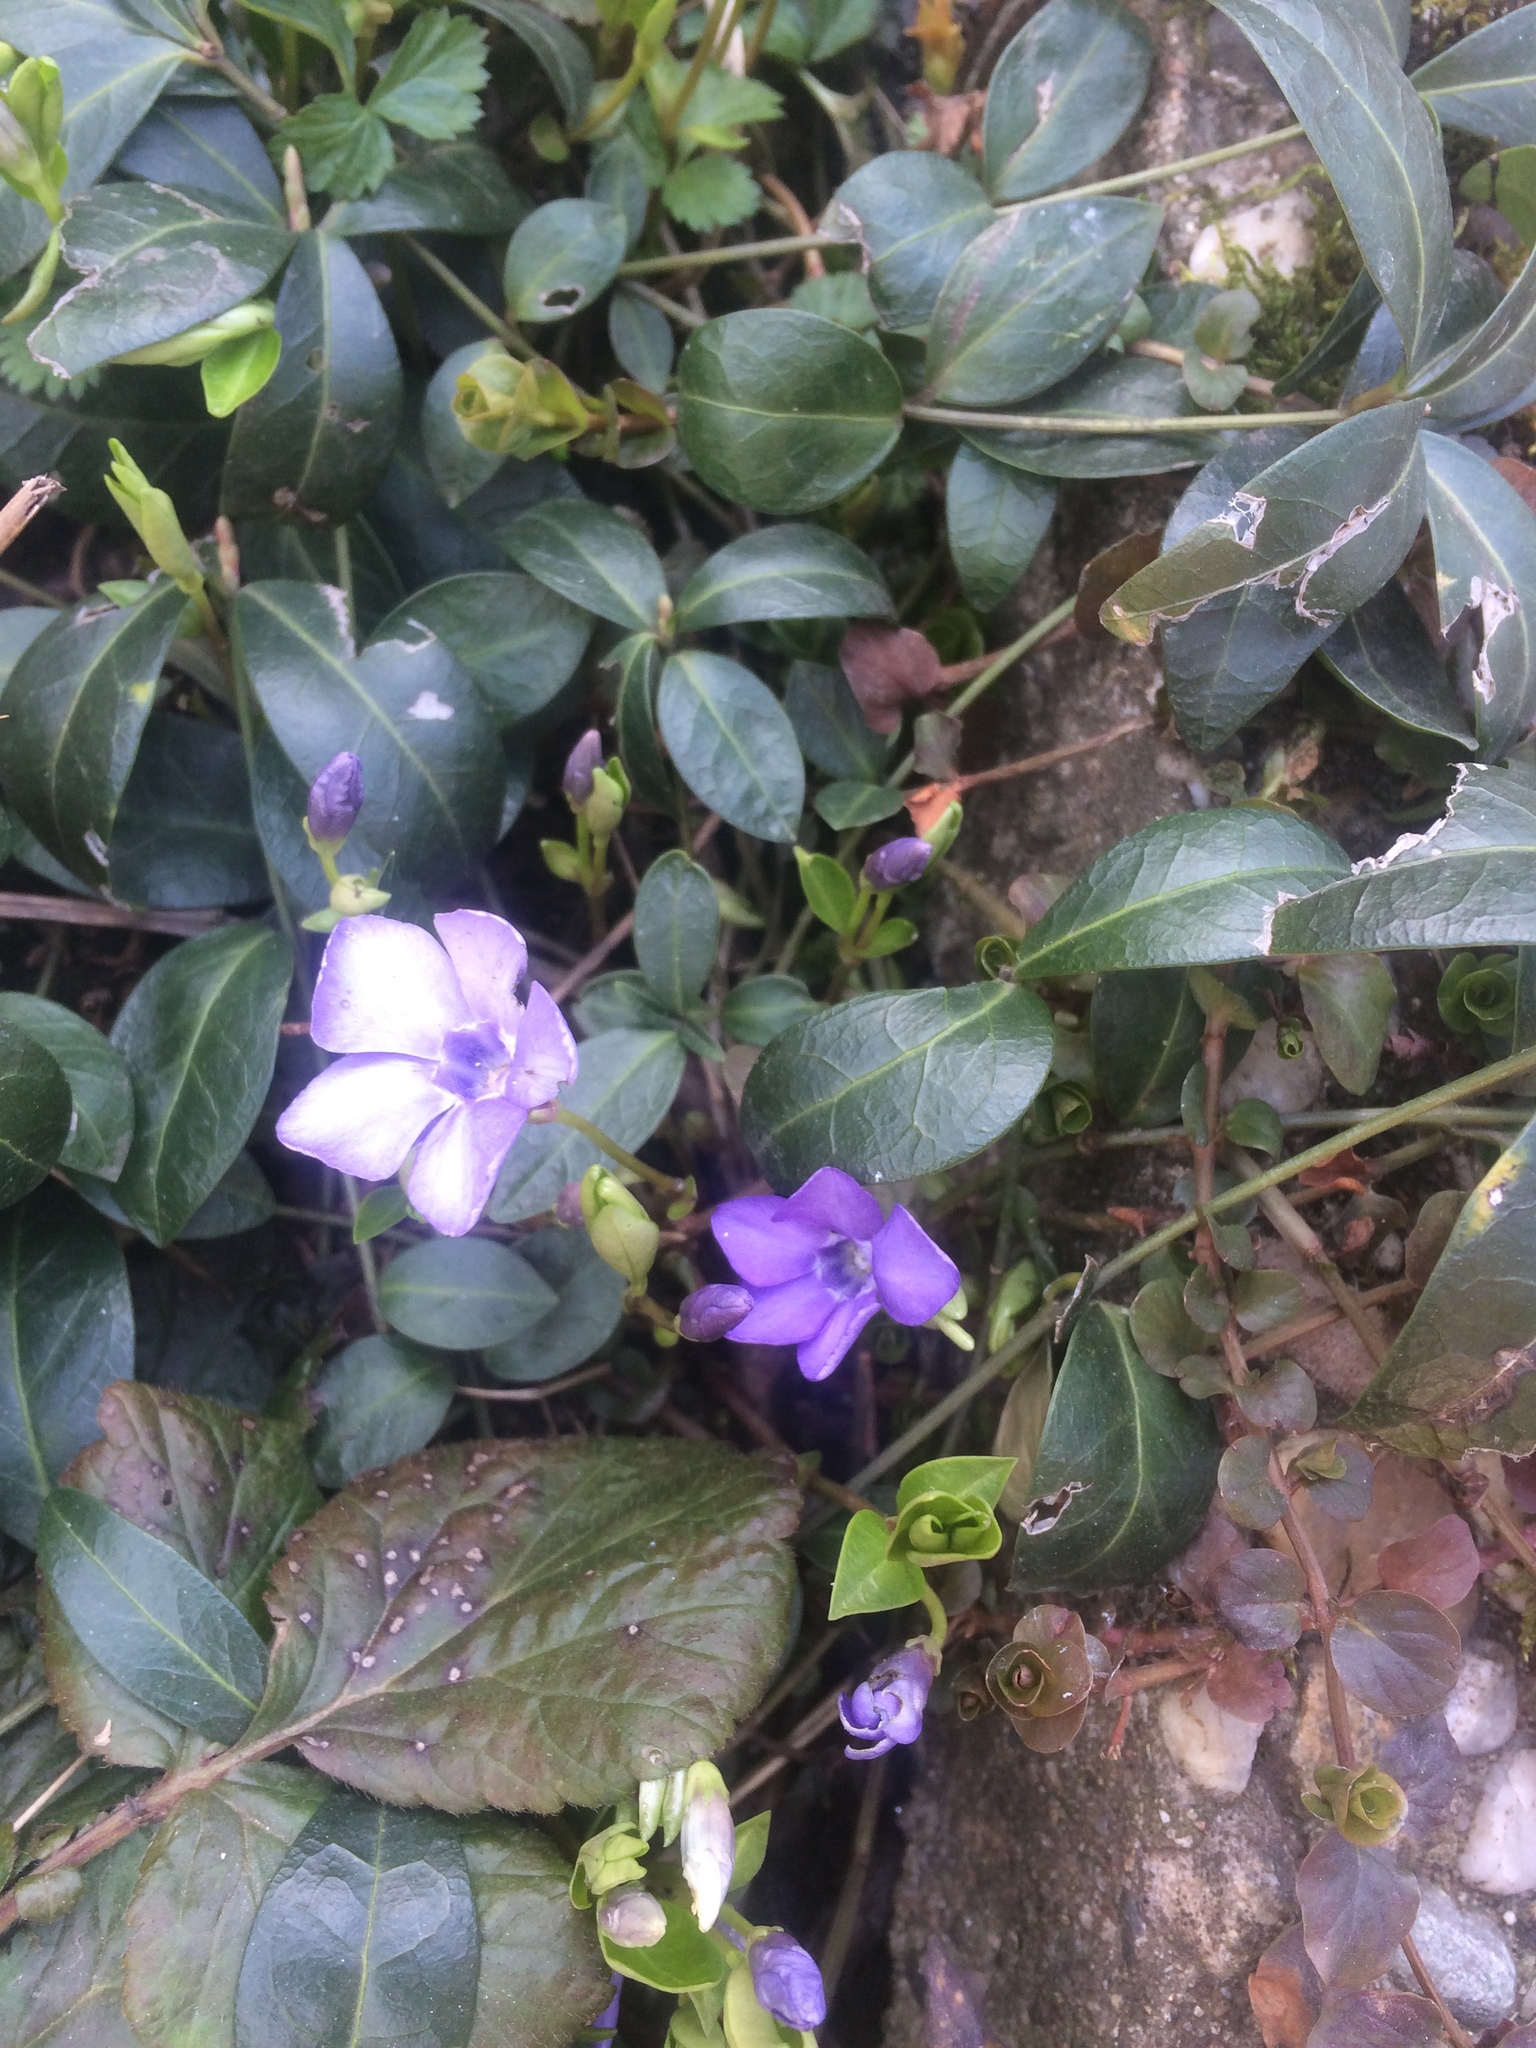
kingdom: Plantae
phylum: Tracheophyta
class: Magnoliopsida
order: Gentianales
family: Apocynaceae
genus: Vinca
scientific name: Vinca minor
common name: Lesser periwinkle
